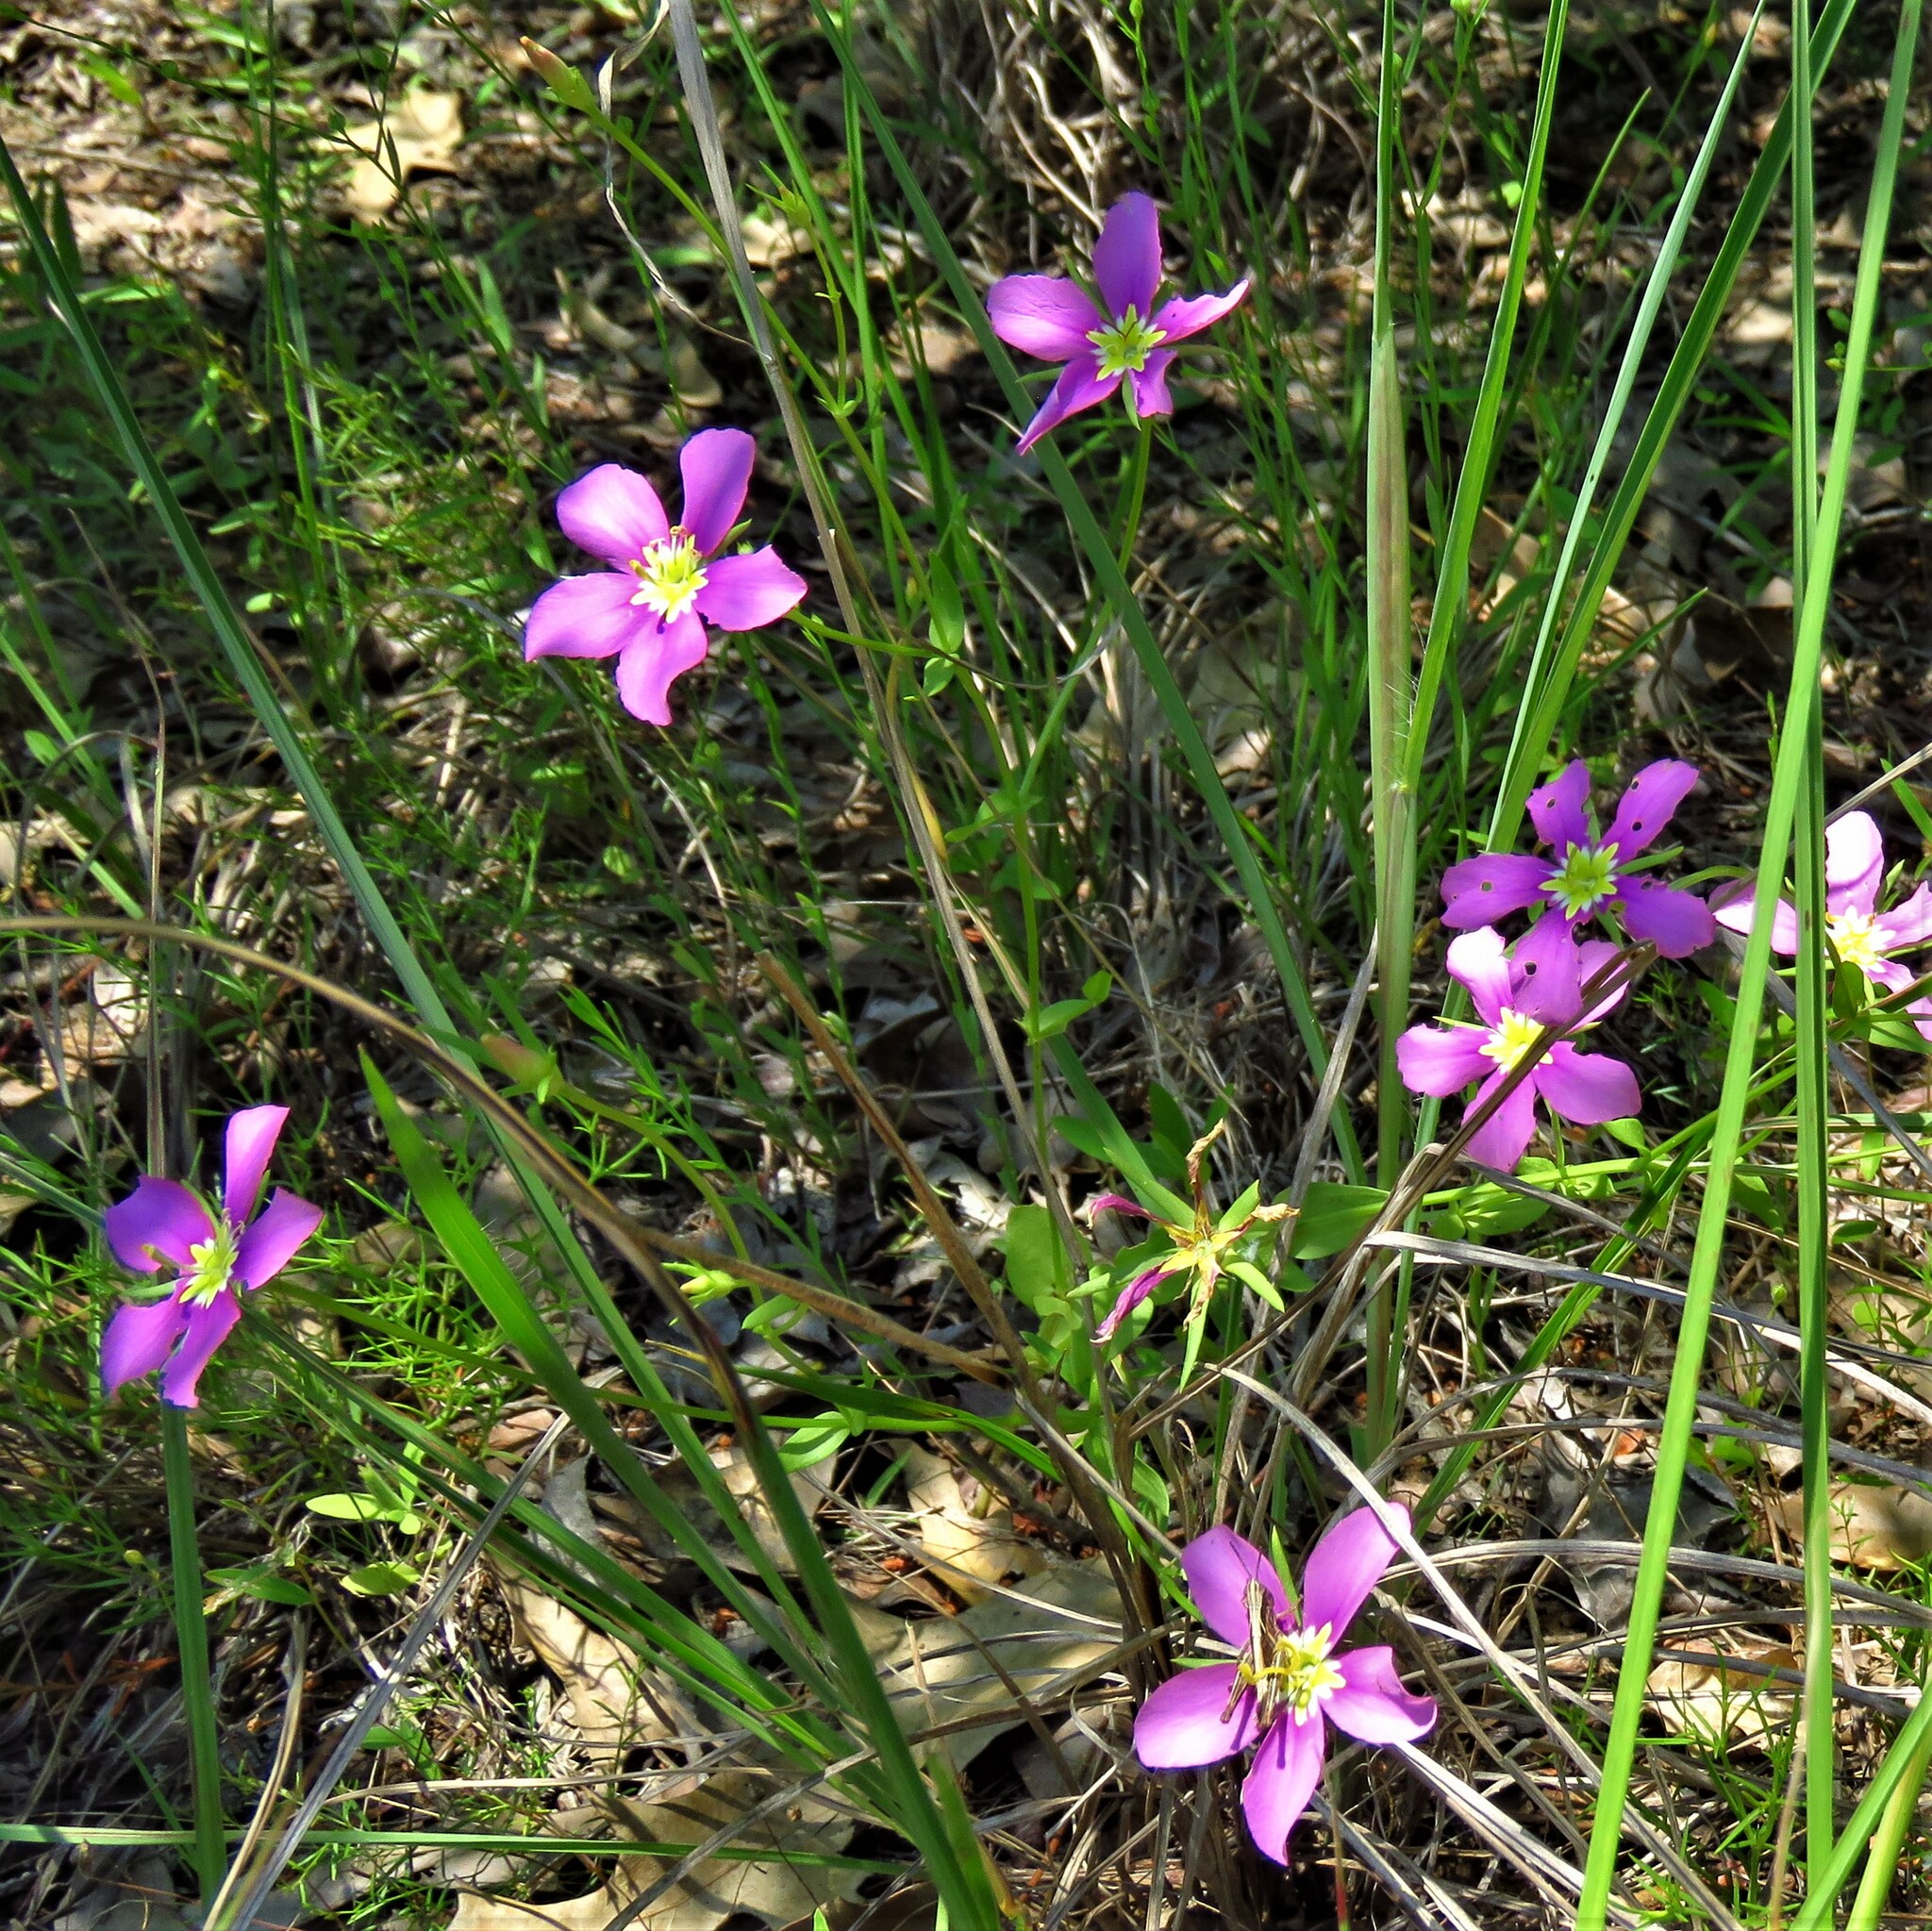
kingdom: Plantae
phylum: Tracheophyta
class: Magnoliopsida
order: Gentianales
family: Gentianaceae
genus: Sabatia
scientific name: Sabatia campestris
